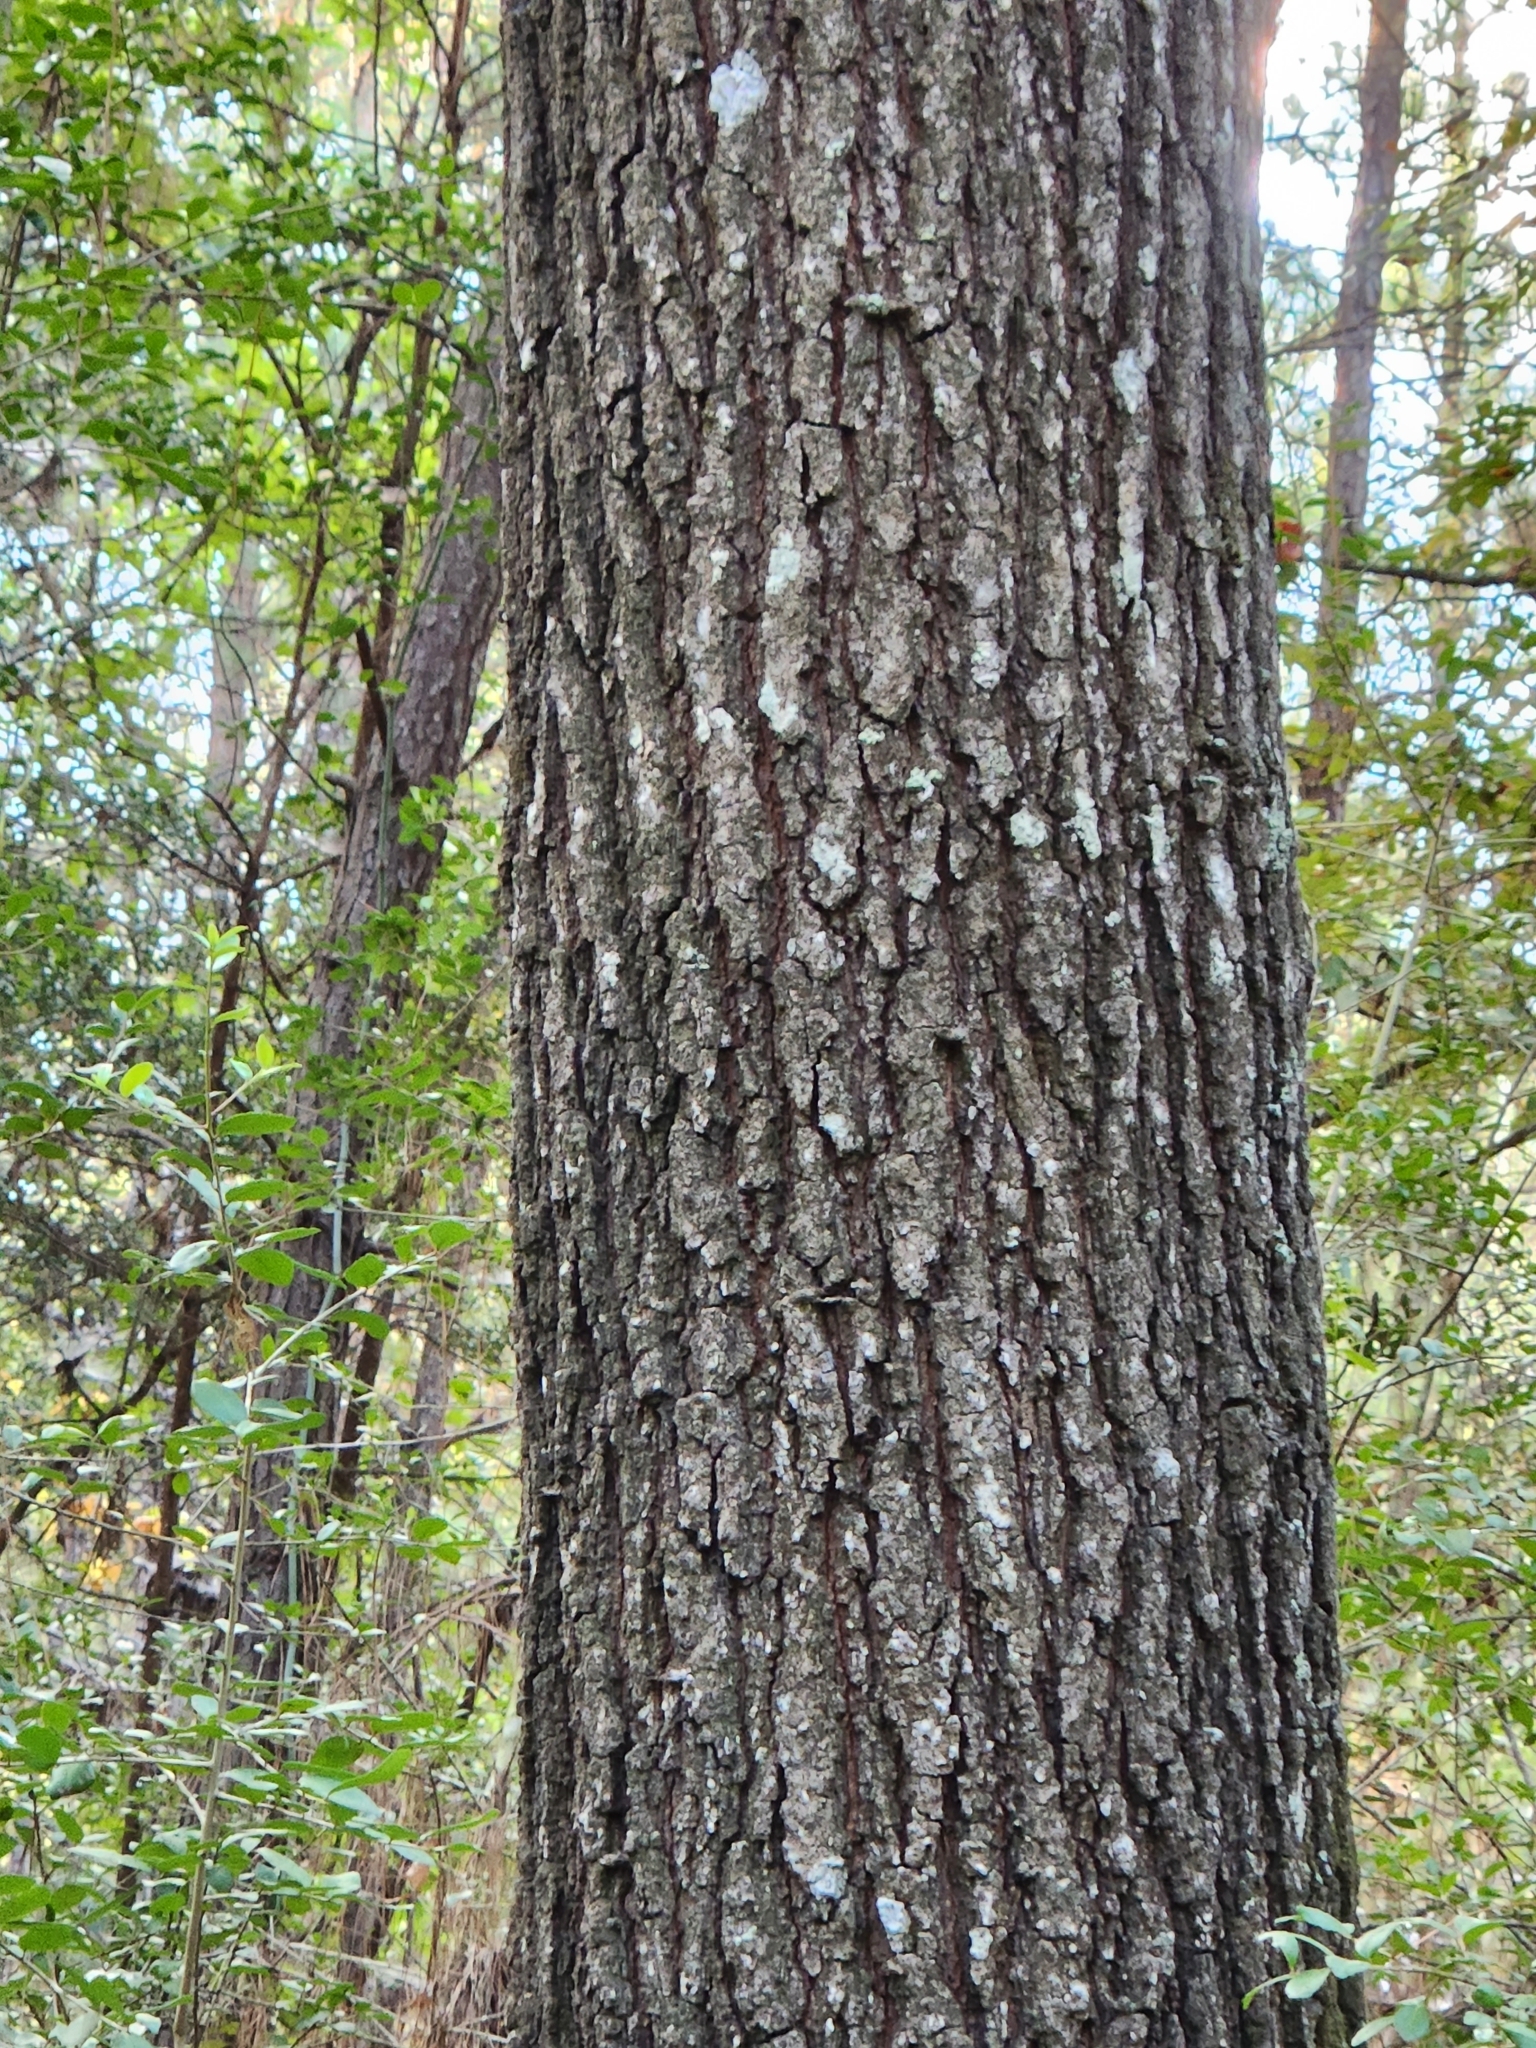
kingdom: Plantae
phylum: Tracheophyta
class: Magnoliopsida
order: Fagales
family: Fagaceae
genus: Quercus
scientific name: Quercus falcata
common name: Southern red oak
